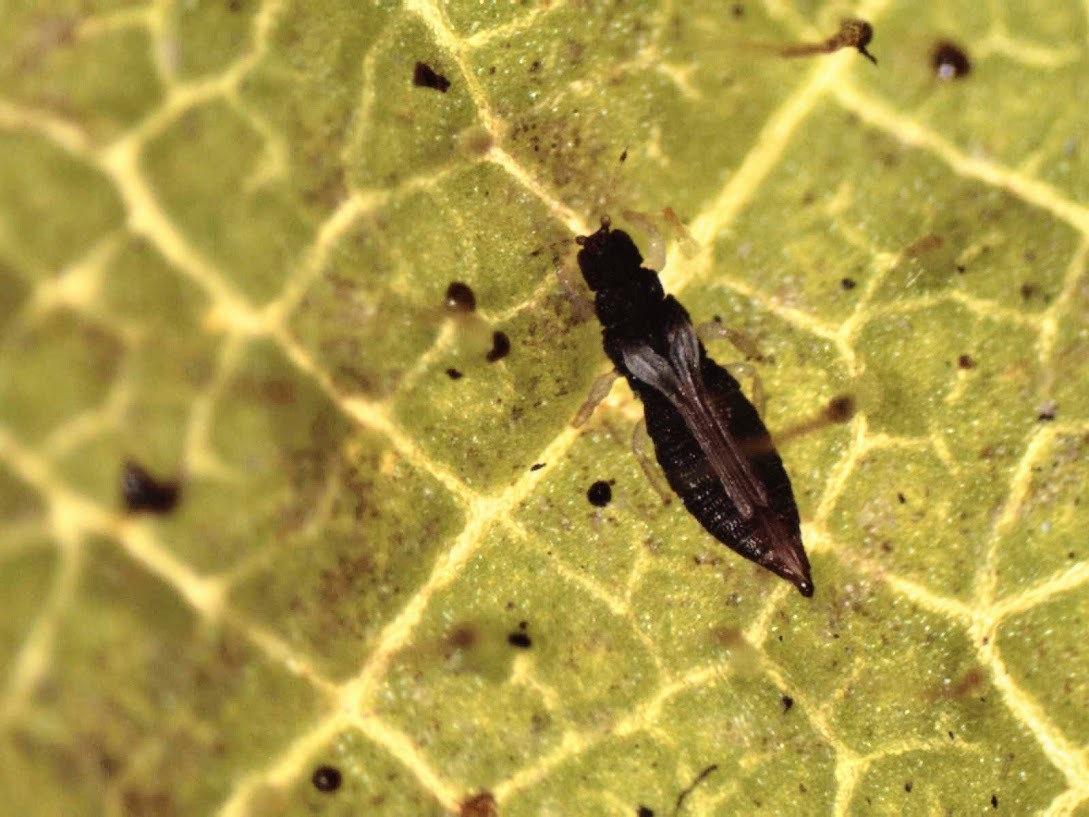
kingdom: Animalia
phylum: Arthropoda
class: Insecta
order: Thysanoptera
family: Thripidae
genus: Heliothrips
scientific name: Heliothrips haemorrhoidalis
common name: Thrips
